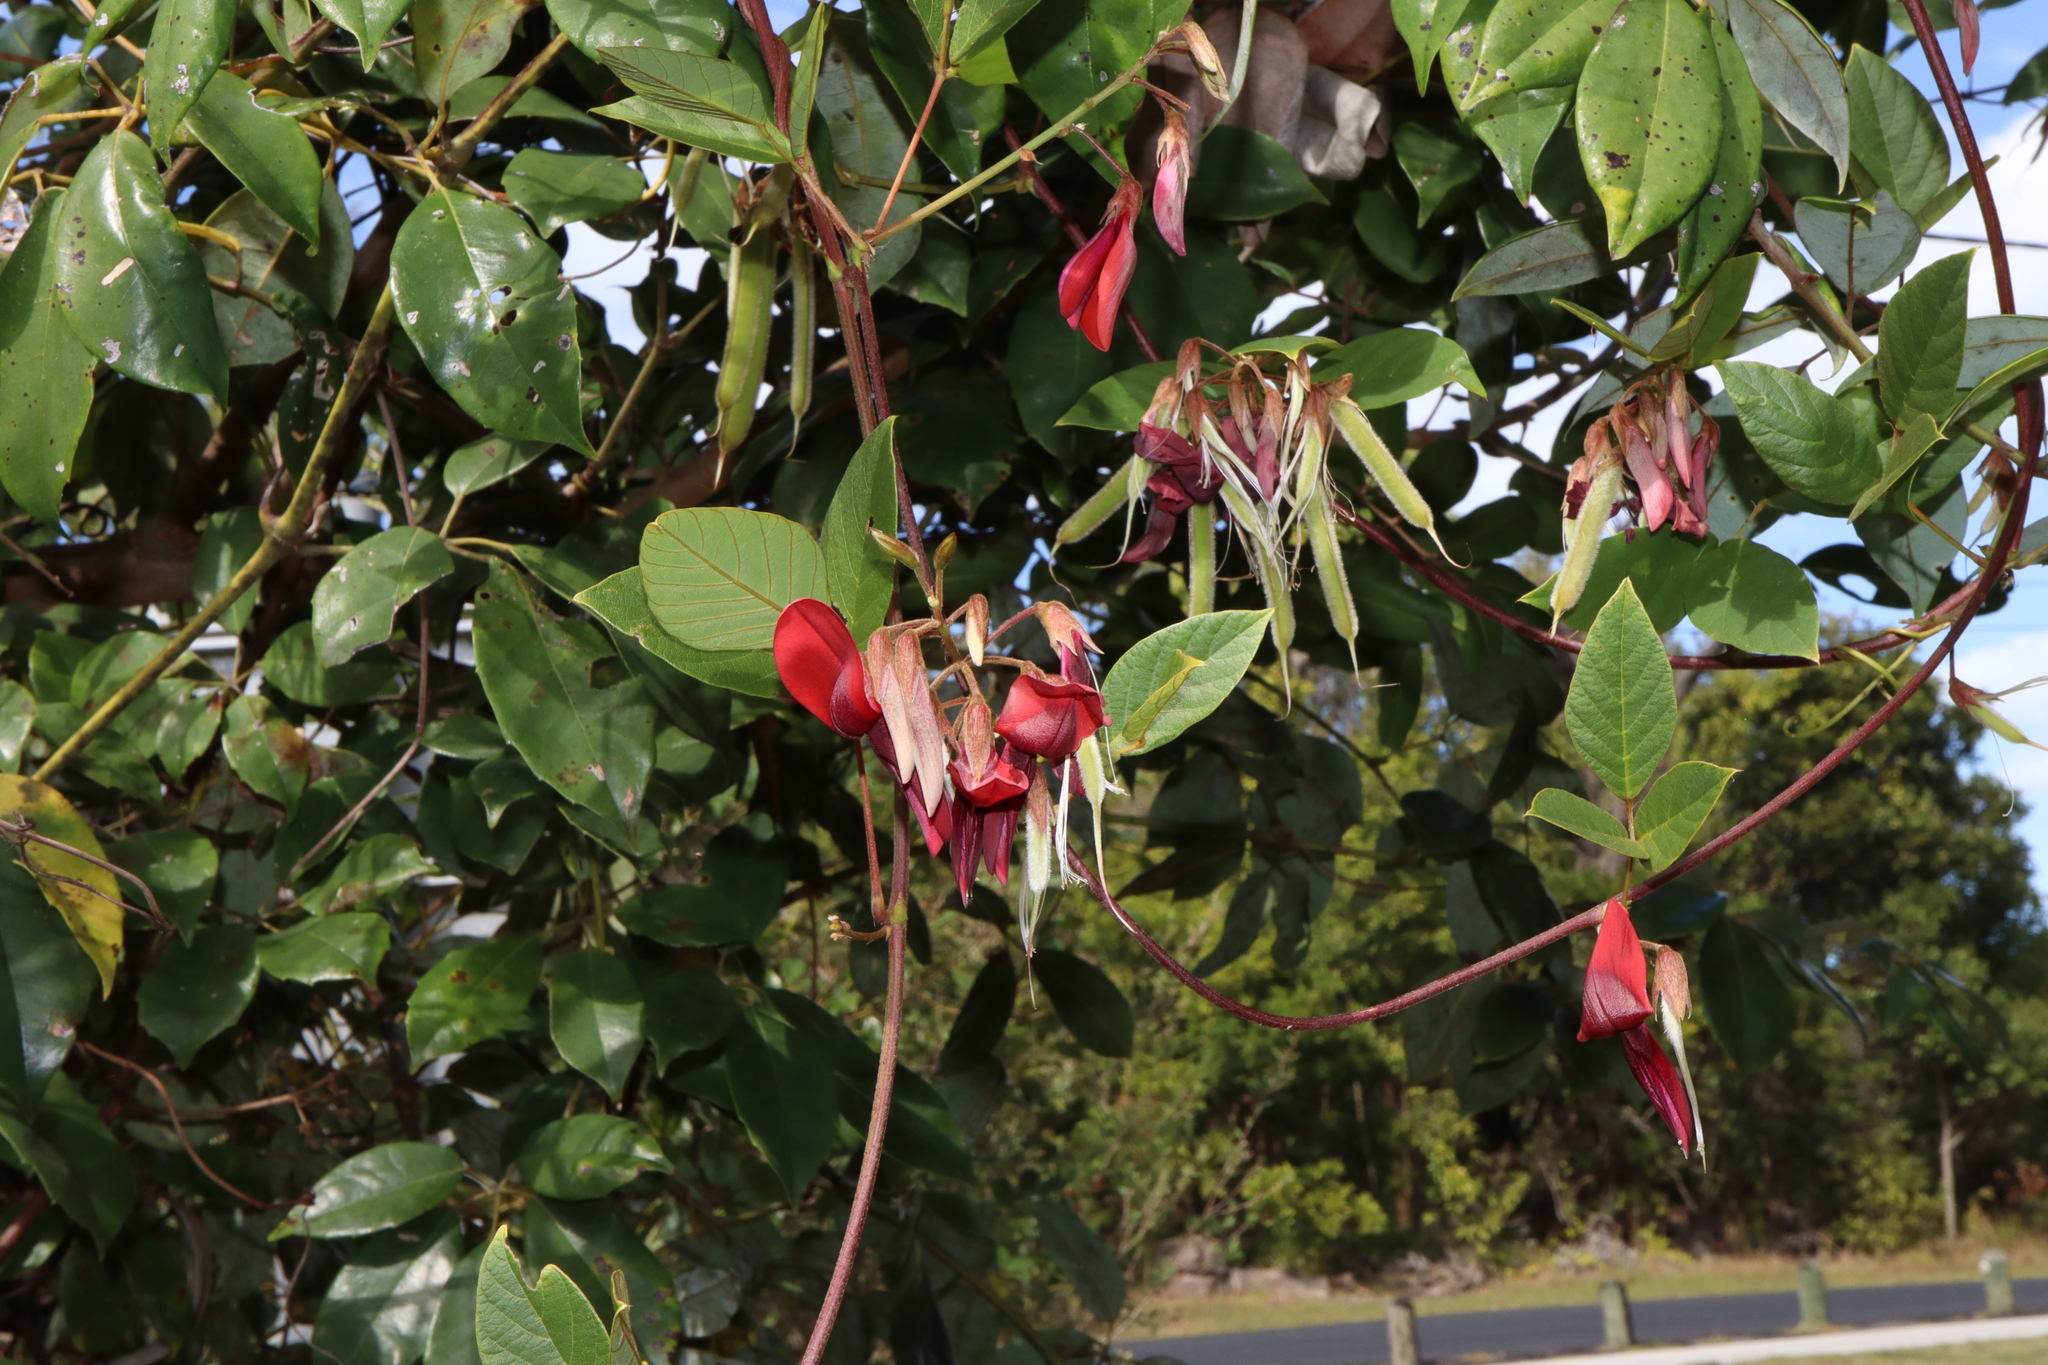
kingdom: Plantae
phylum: Tracheophyta
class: Magnoliopsida
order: Fabales
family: Fabaceae
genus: Kennedia
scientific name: Kennedia rubicunda
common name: Red kennedy-pea
